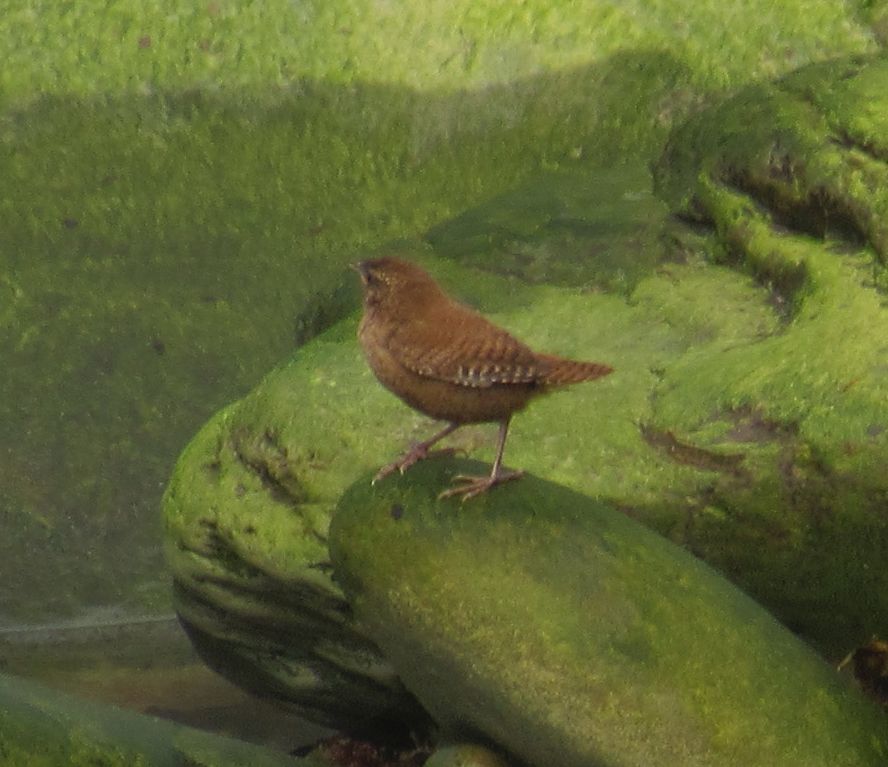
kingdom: Animalia
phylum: Chordata
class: Aves
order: Passeriformes
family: Troglodytidae
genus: Troglodytes
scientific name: Troglodytes troglodytes
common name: Eurasian wren
